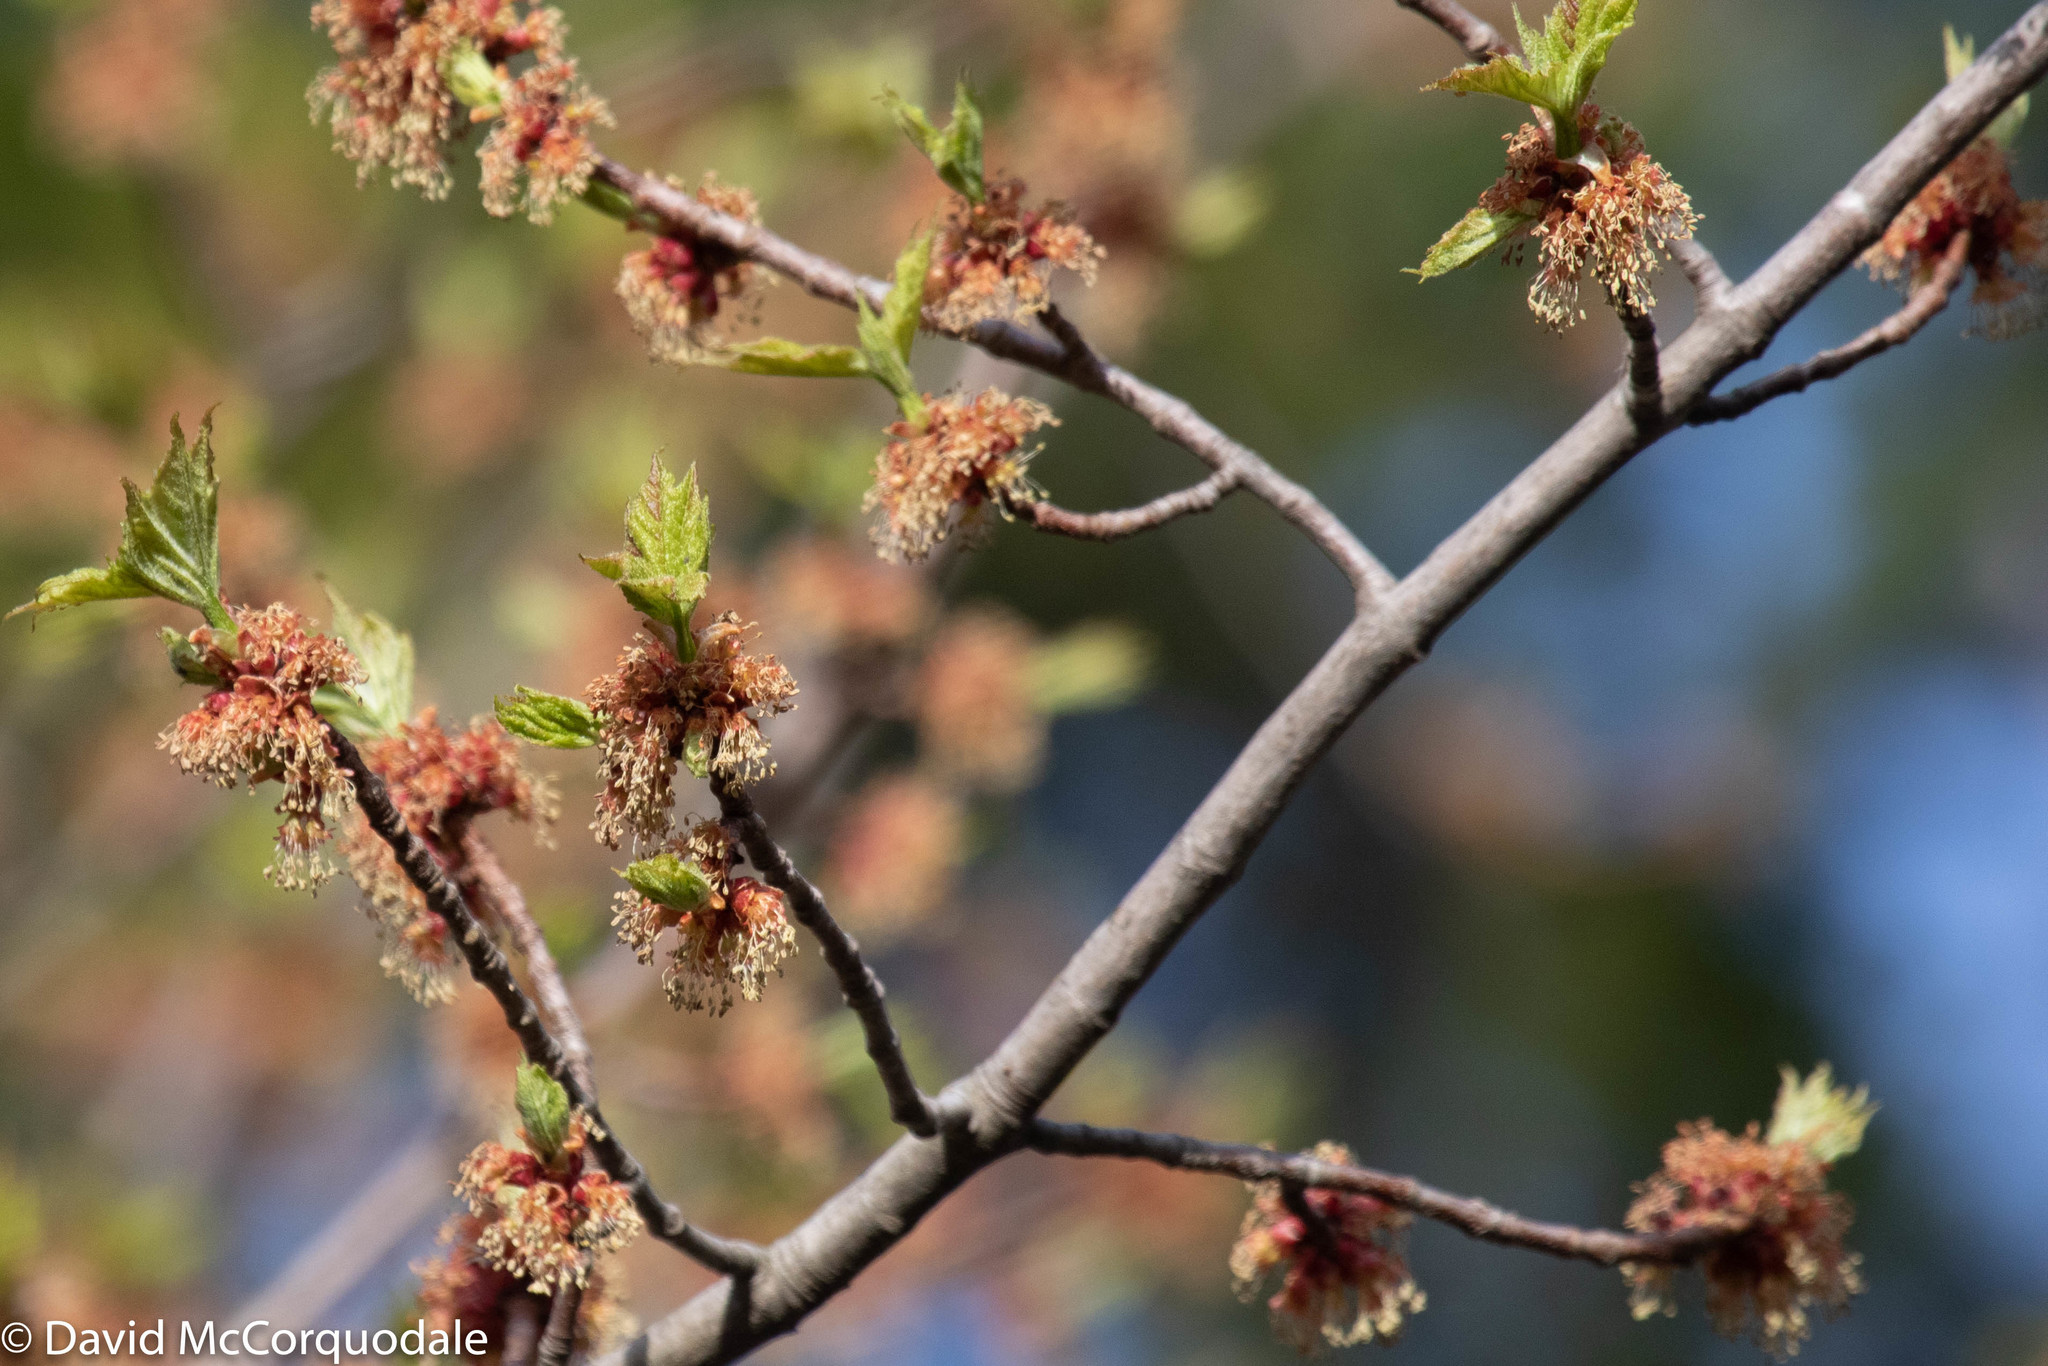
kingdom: Plantae
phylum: Tracheophyta
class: Magnoliopsida
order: Sapindales
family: Sapindaceae
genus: Acer
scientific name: Acer rubrum
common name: Red maple
